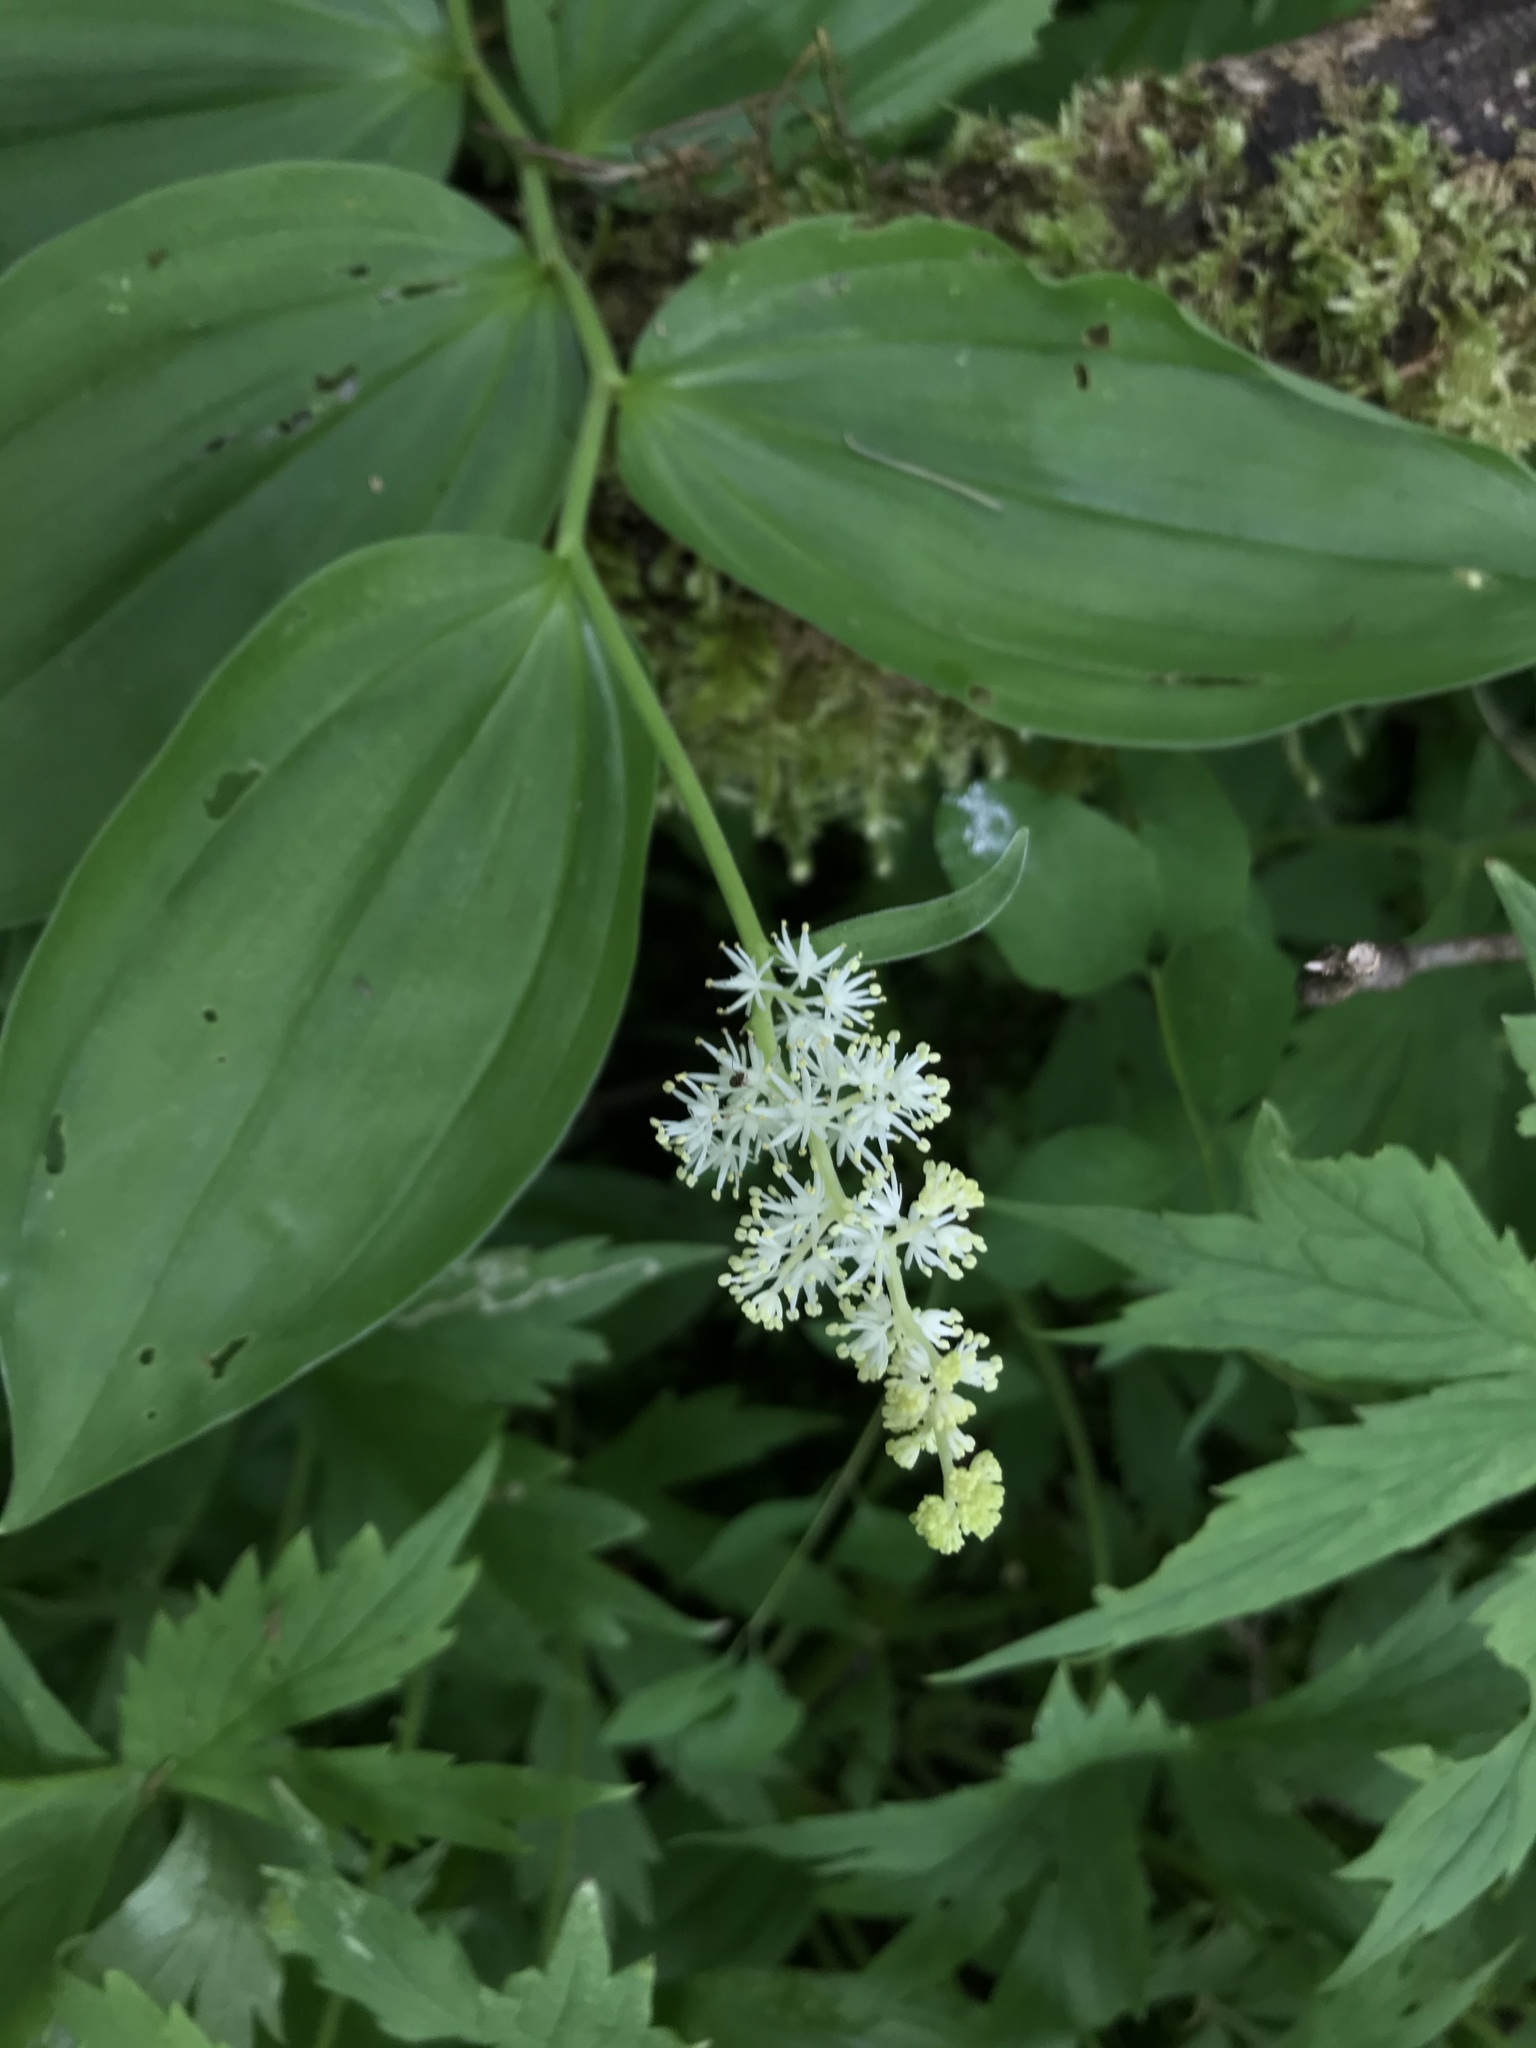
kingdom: Plantae
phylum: Tracheophyta
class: Liliopsida
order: Asparagales
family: Asparagaceae
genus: Maianthemum
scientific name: Maianthemum racemosum
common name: False spikenard
